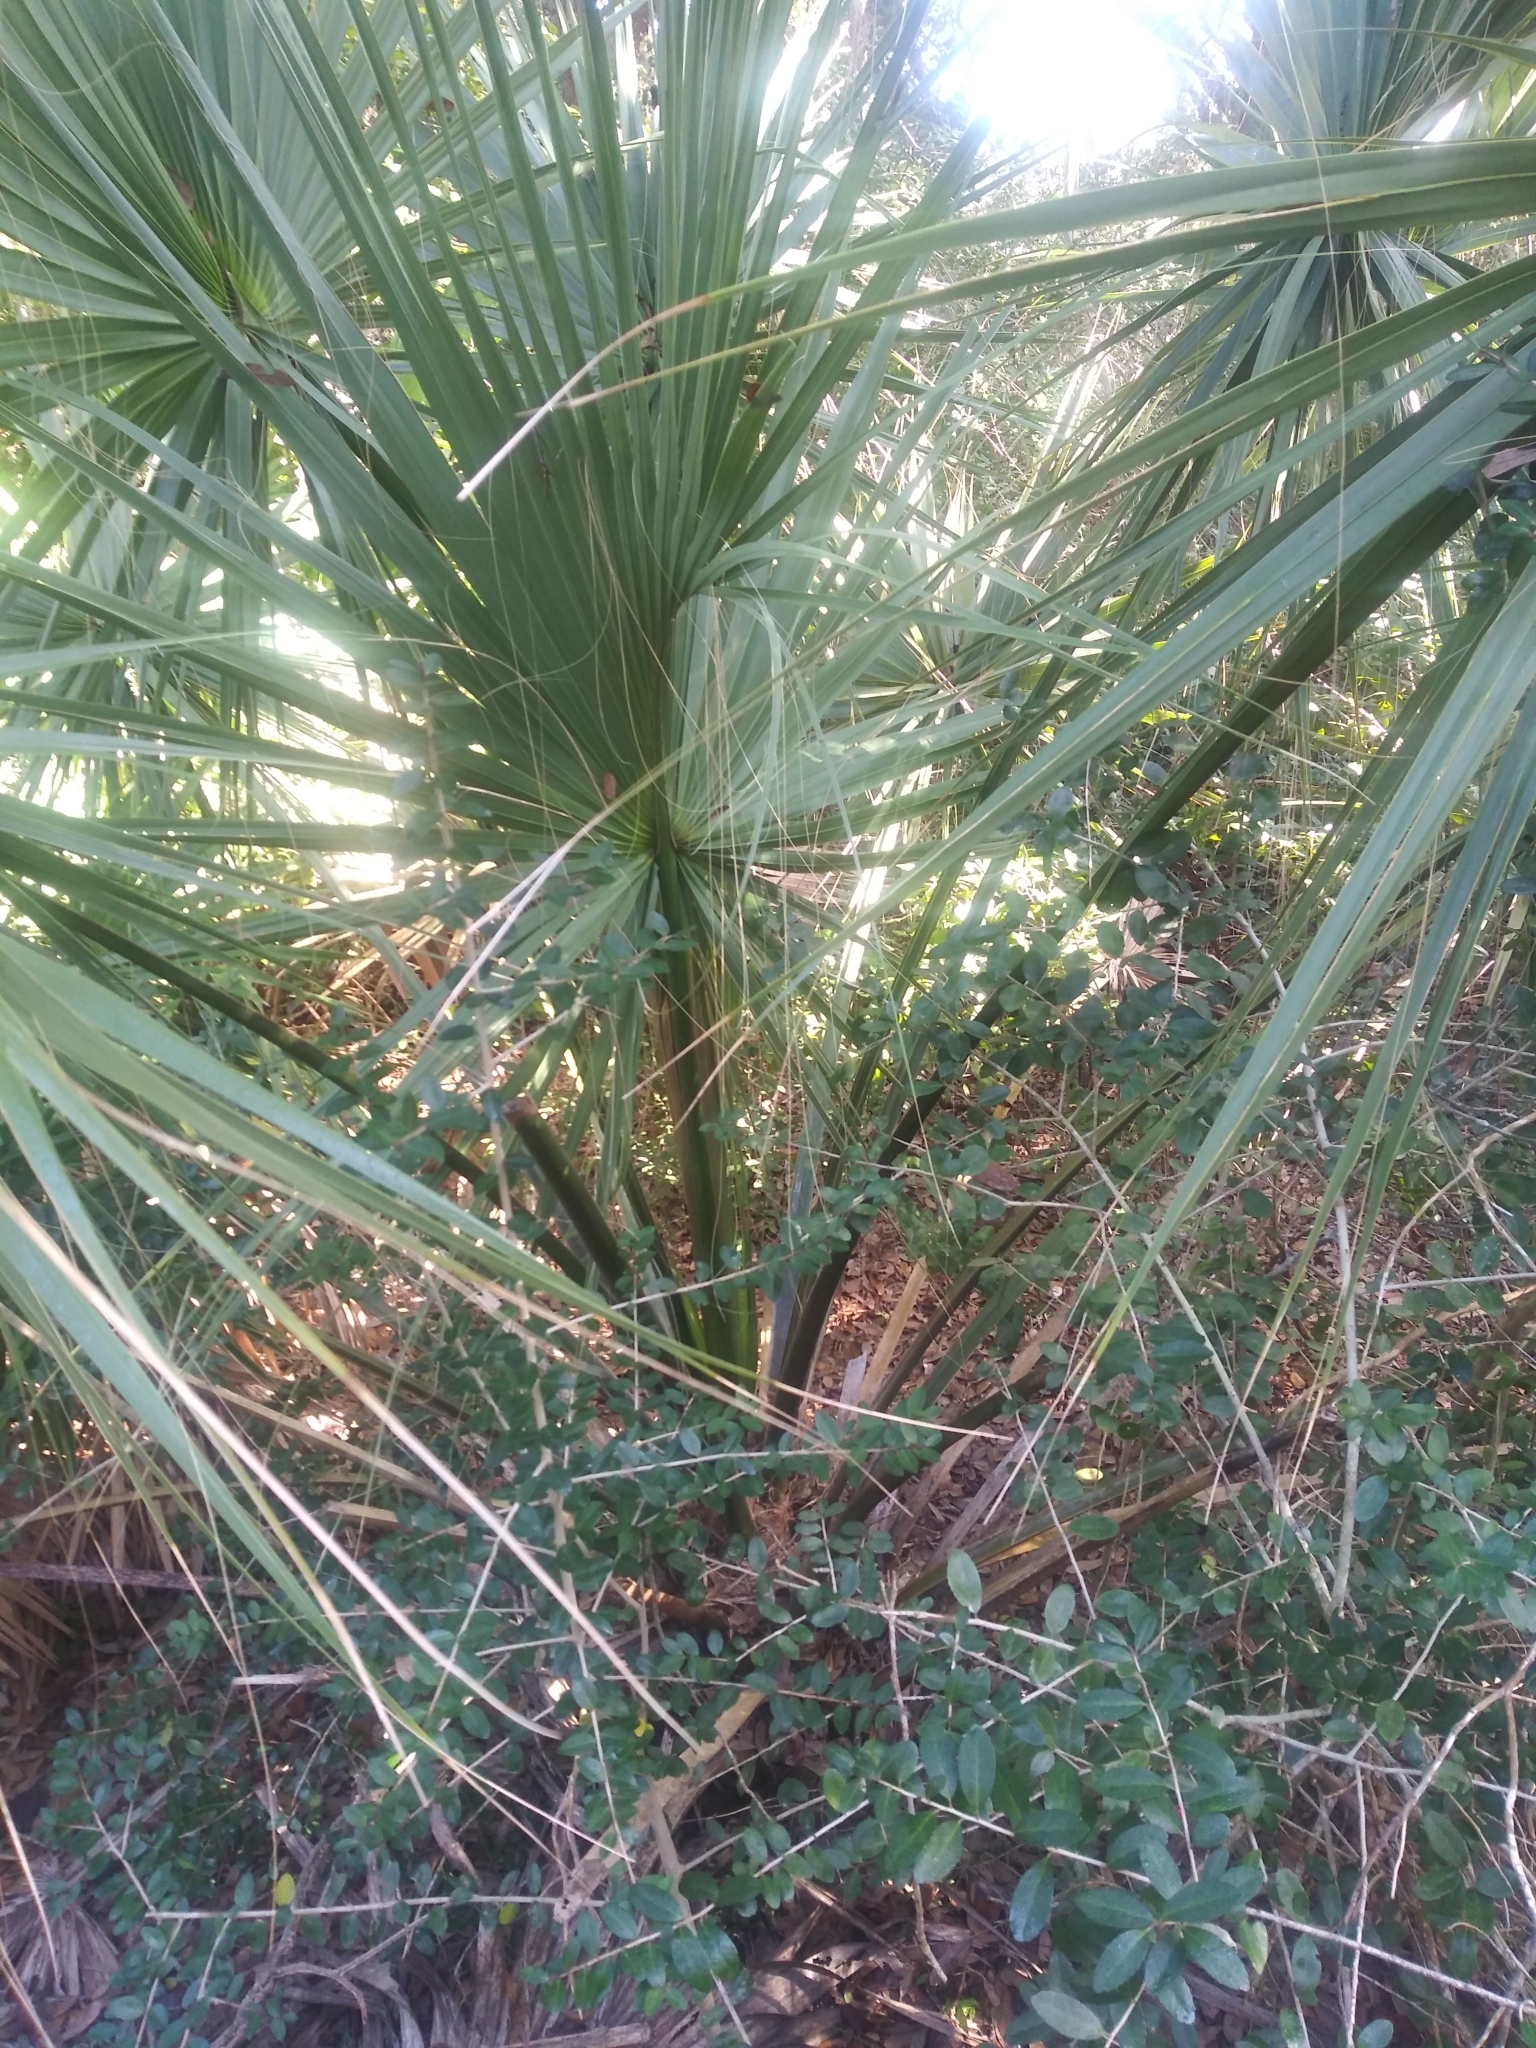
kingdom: Plantae
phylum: Tracheophyta
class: Liliopsida
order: Arecales
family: Arecaceae
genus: Sabal
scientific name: Sabal palmetto
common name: Blue palmetto
